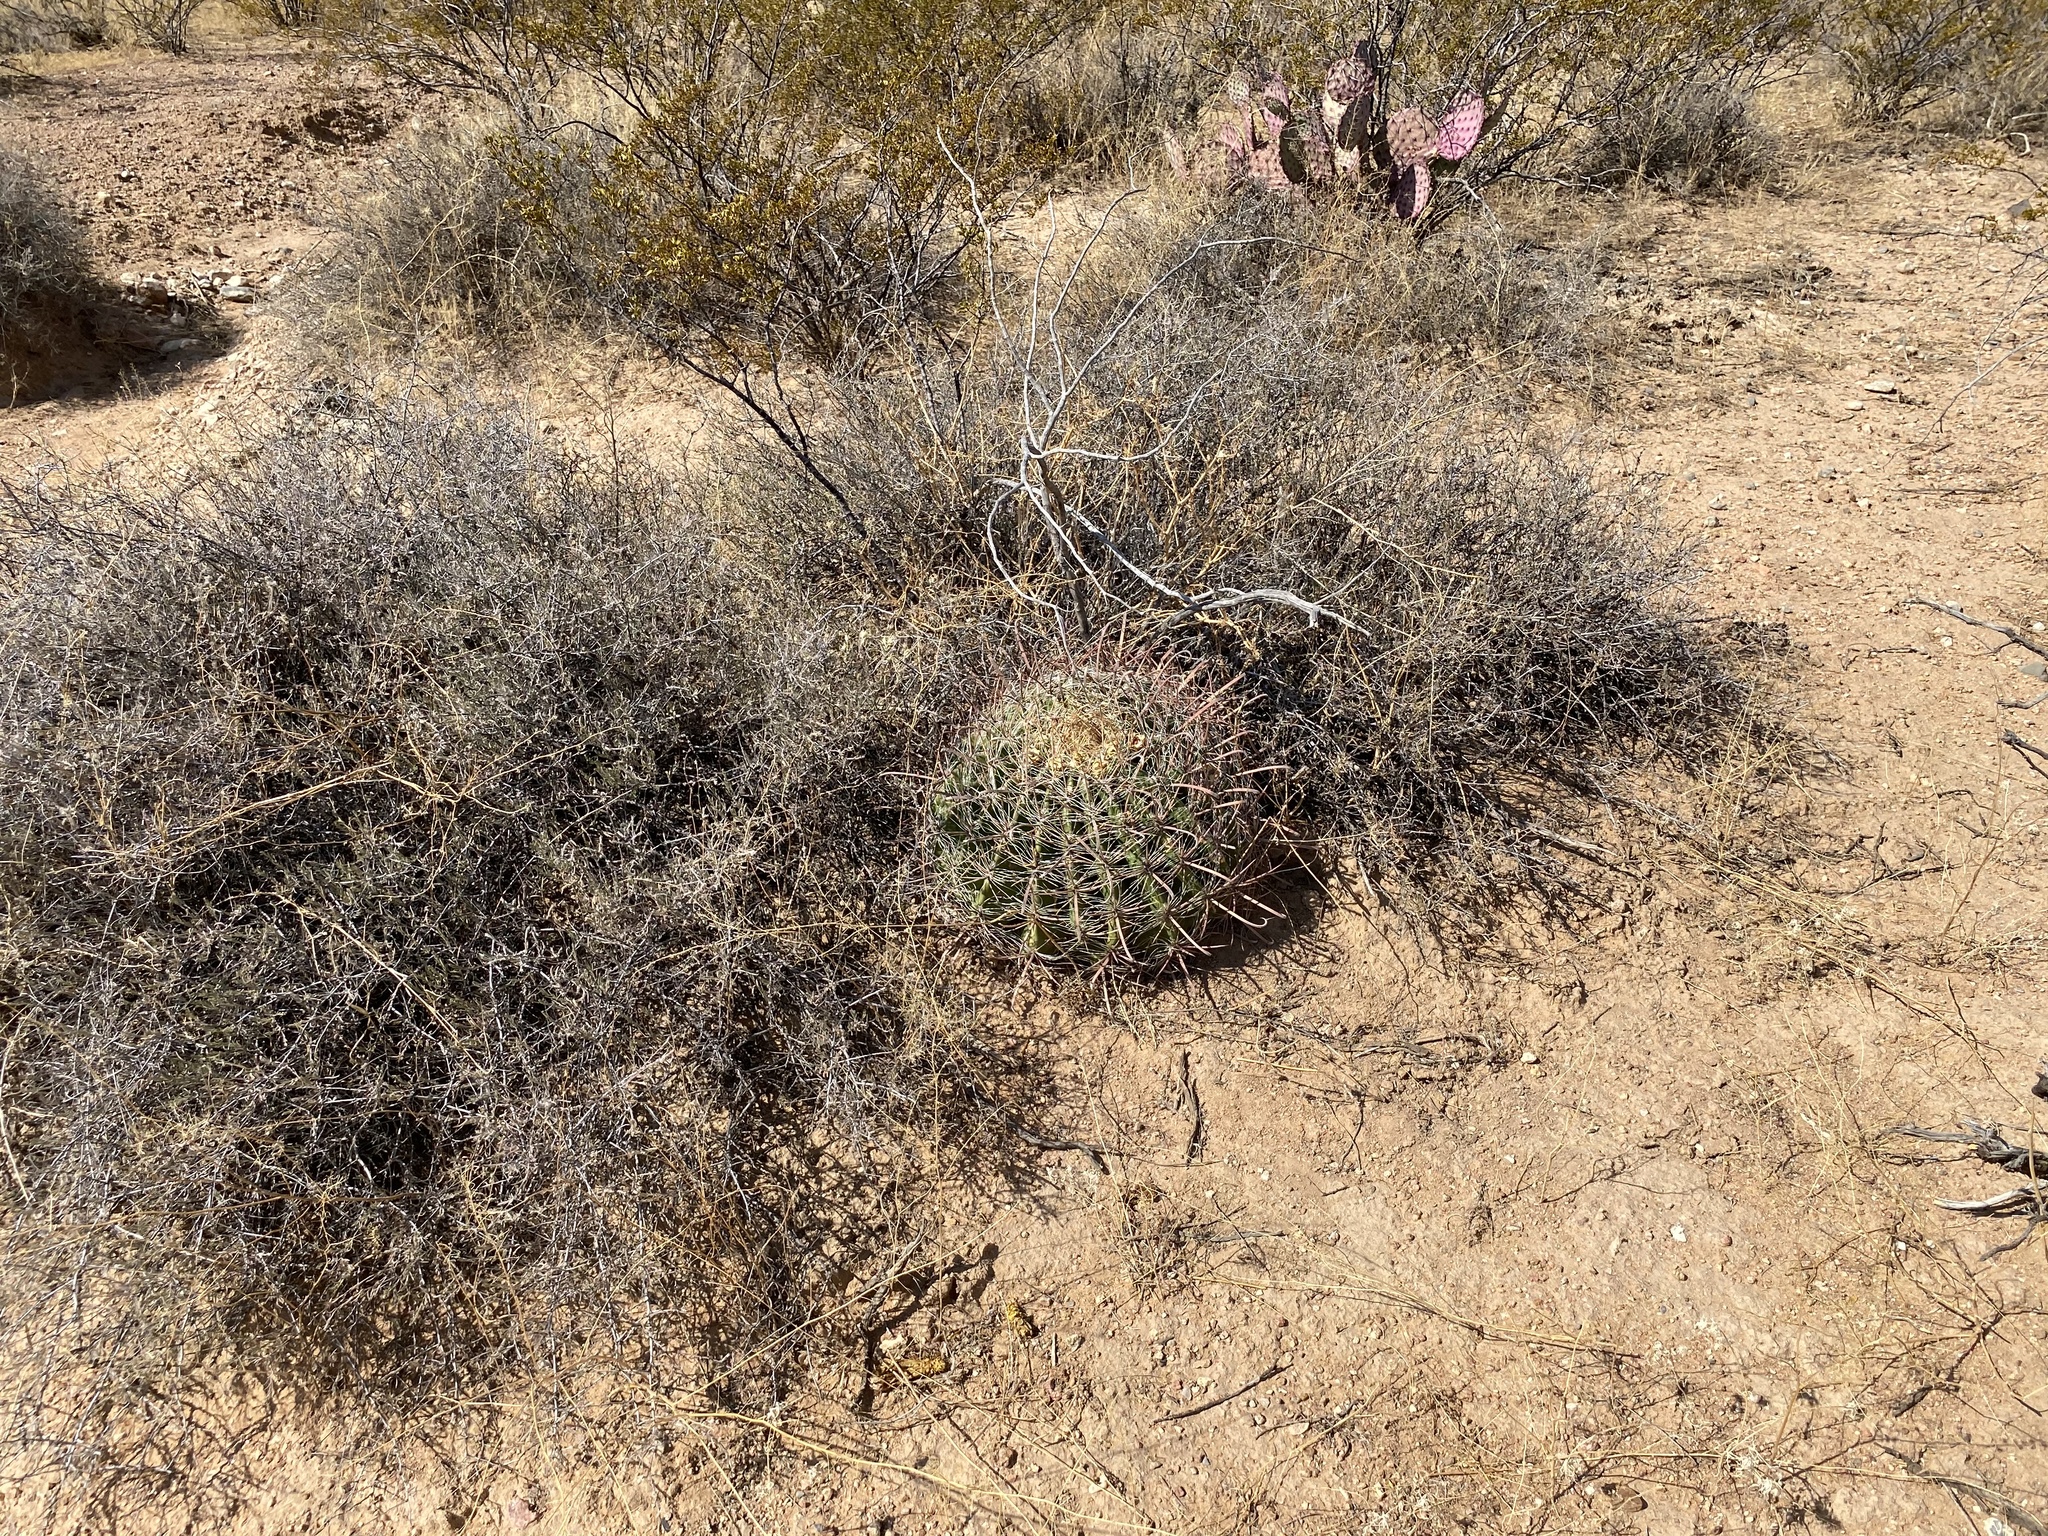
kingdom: Plantae
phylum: Tracheophyta
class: Magnoliopsida
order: Caryophyllales
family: Cactaceae
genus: Ferocactus
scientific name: Ferocactus wislizeni
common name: Candy barrel cactus
